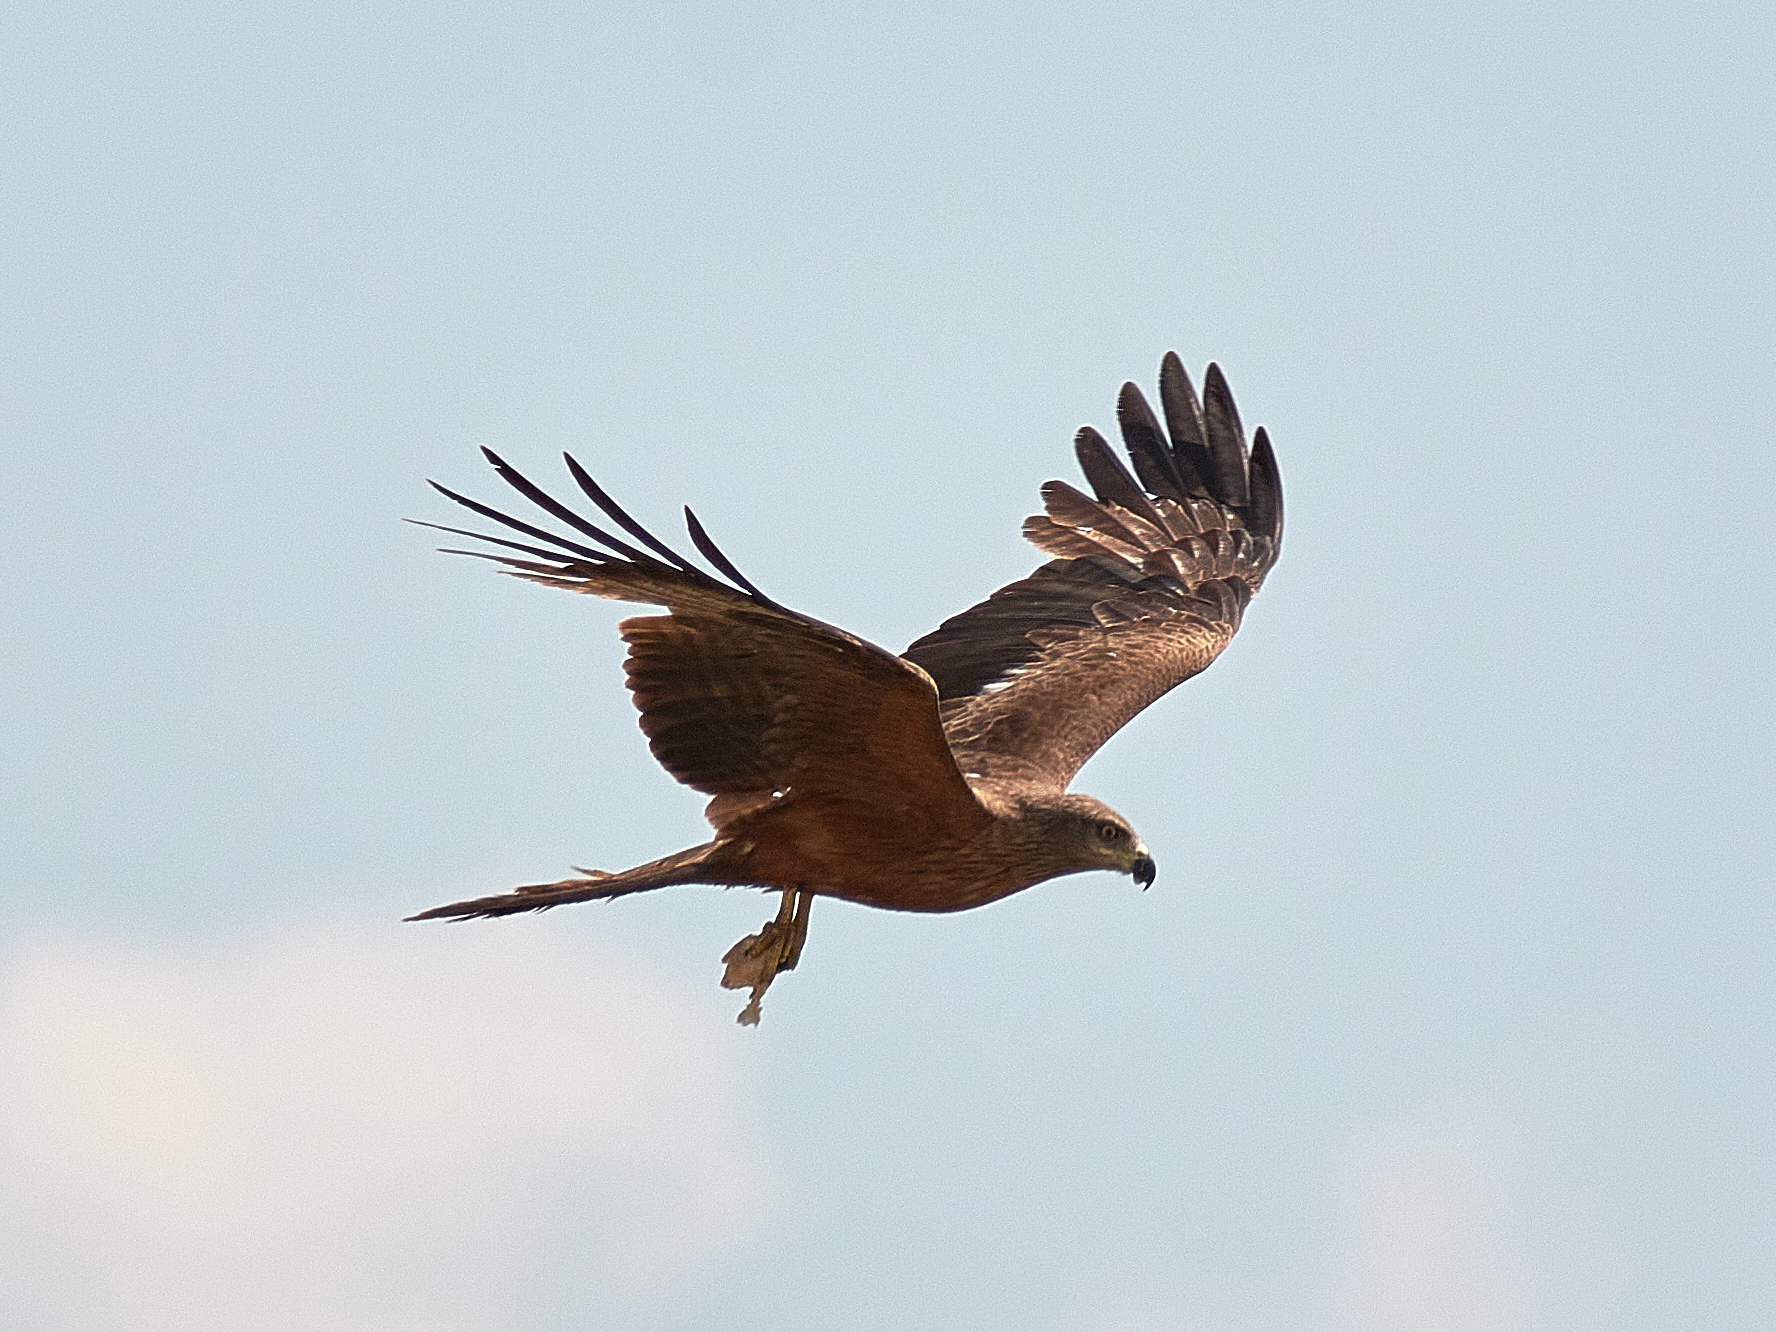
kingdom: Animalia
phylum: Chordata
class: Aves
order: Accipitriformes
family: Accipitridae
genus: Milvus
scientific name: Milvus migrans
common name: Black kite
